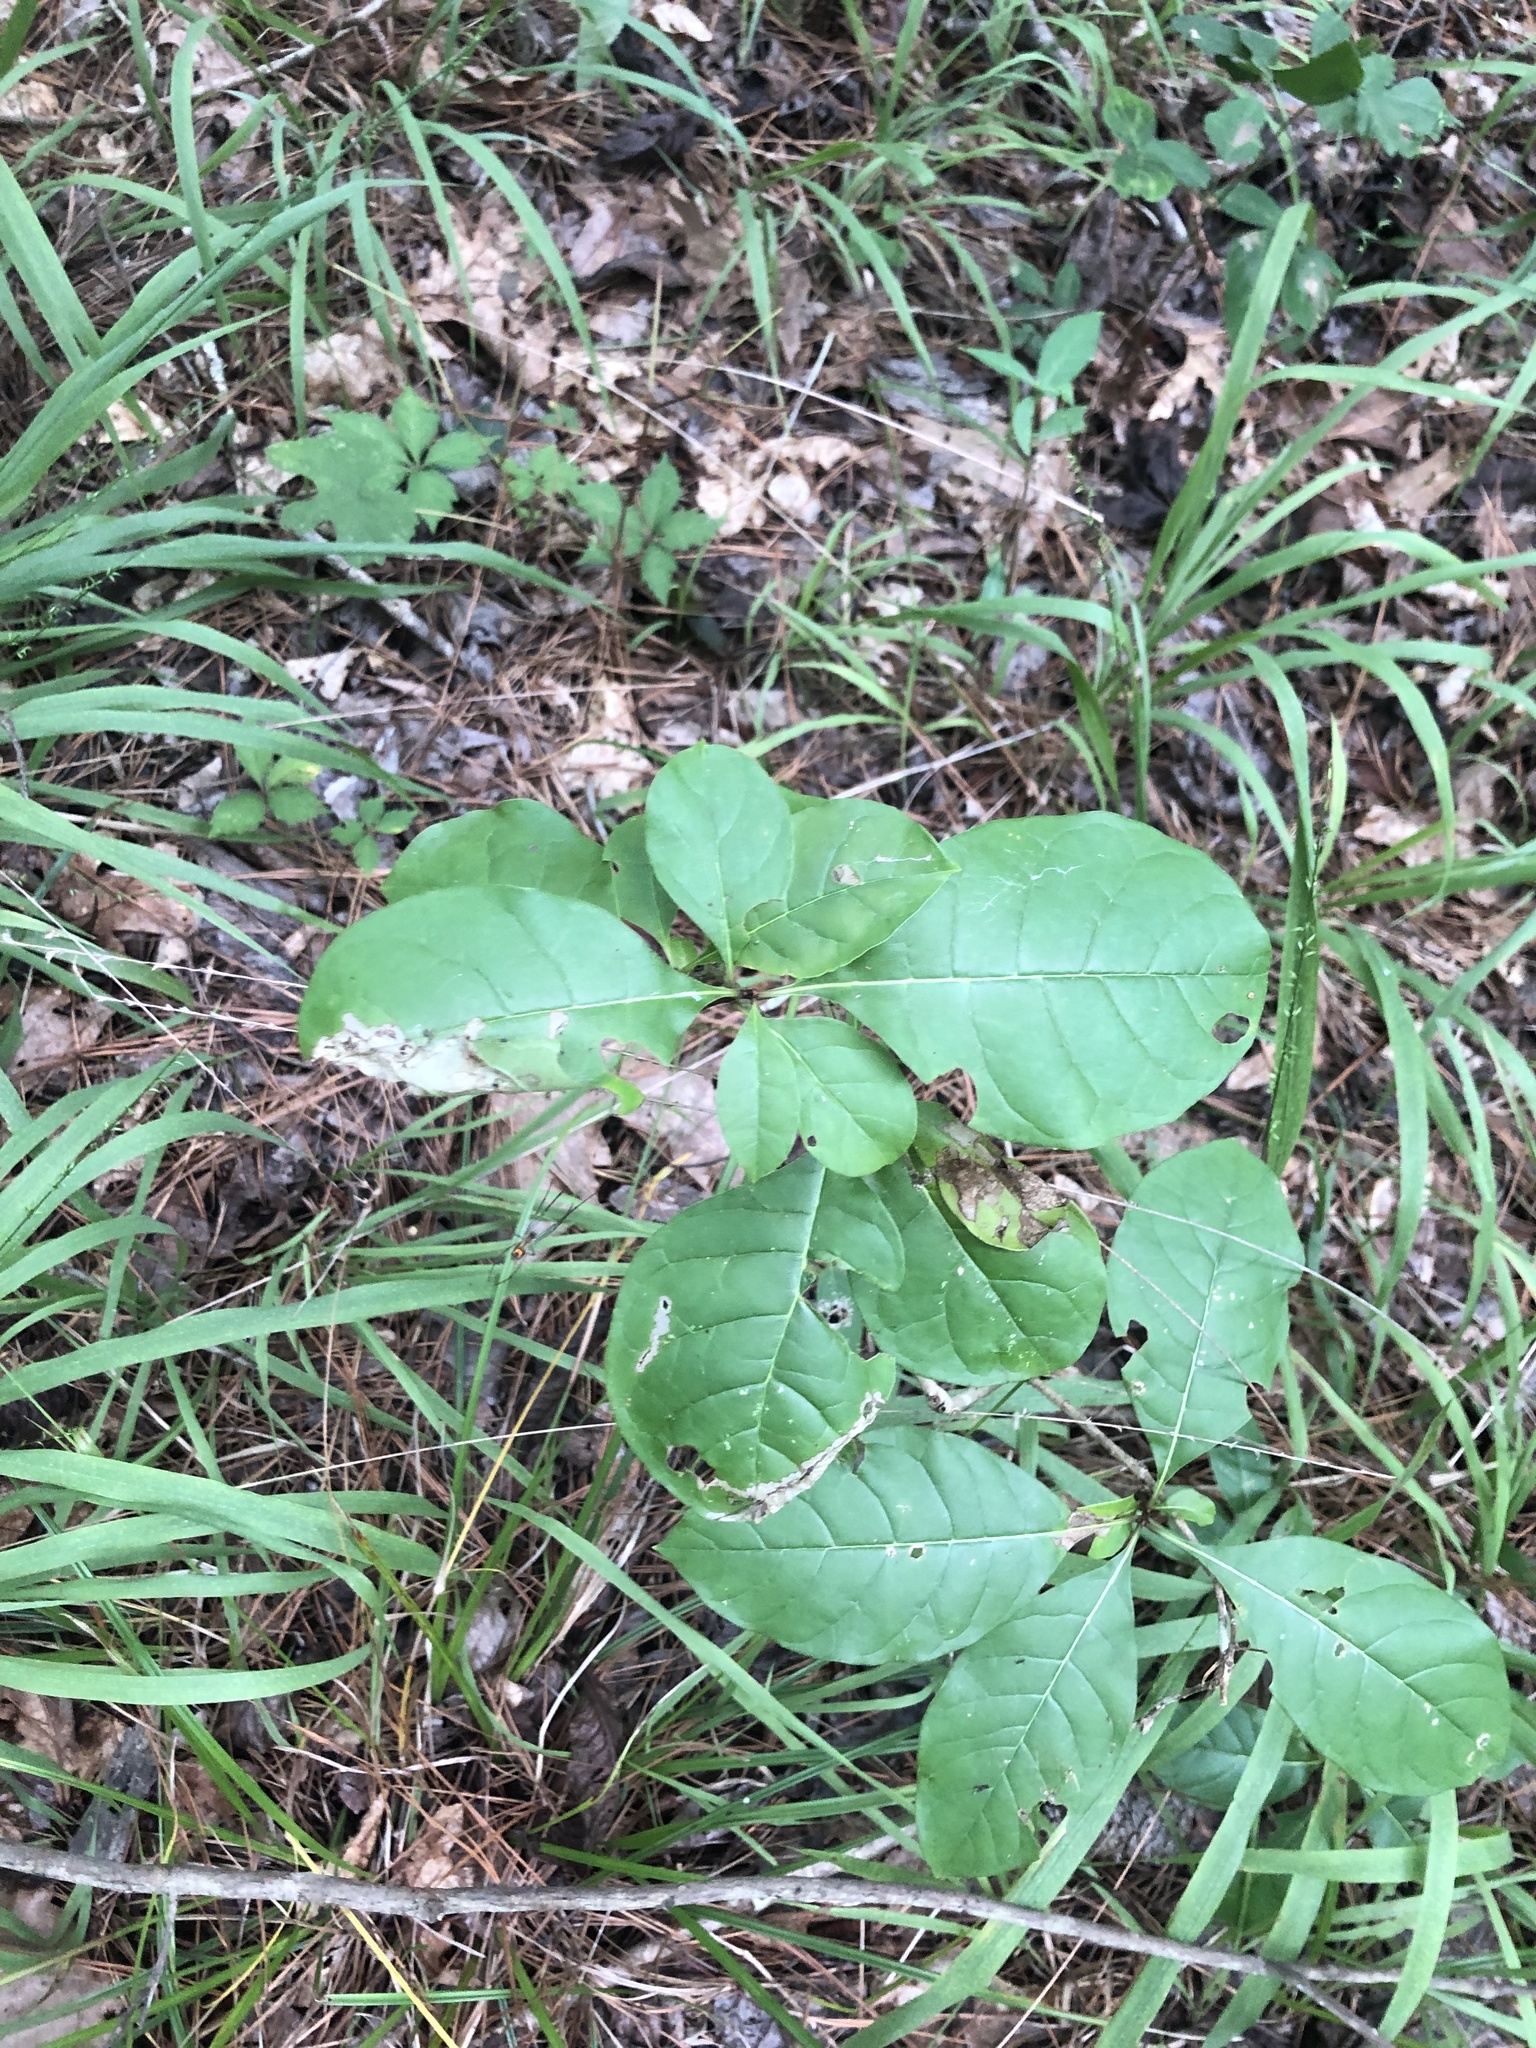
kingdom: Plantae
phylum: Tracheophyta
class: Magnoliopsida
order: Lamiales
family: Oleaceae
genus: Chionanthus
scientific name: Chionanthus virginicus
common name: American fringetree
